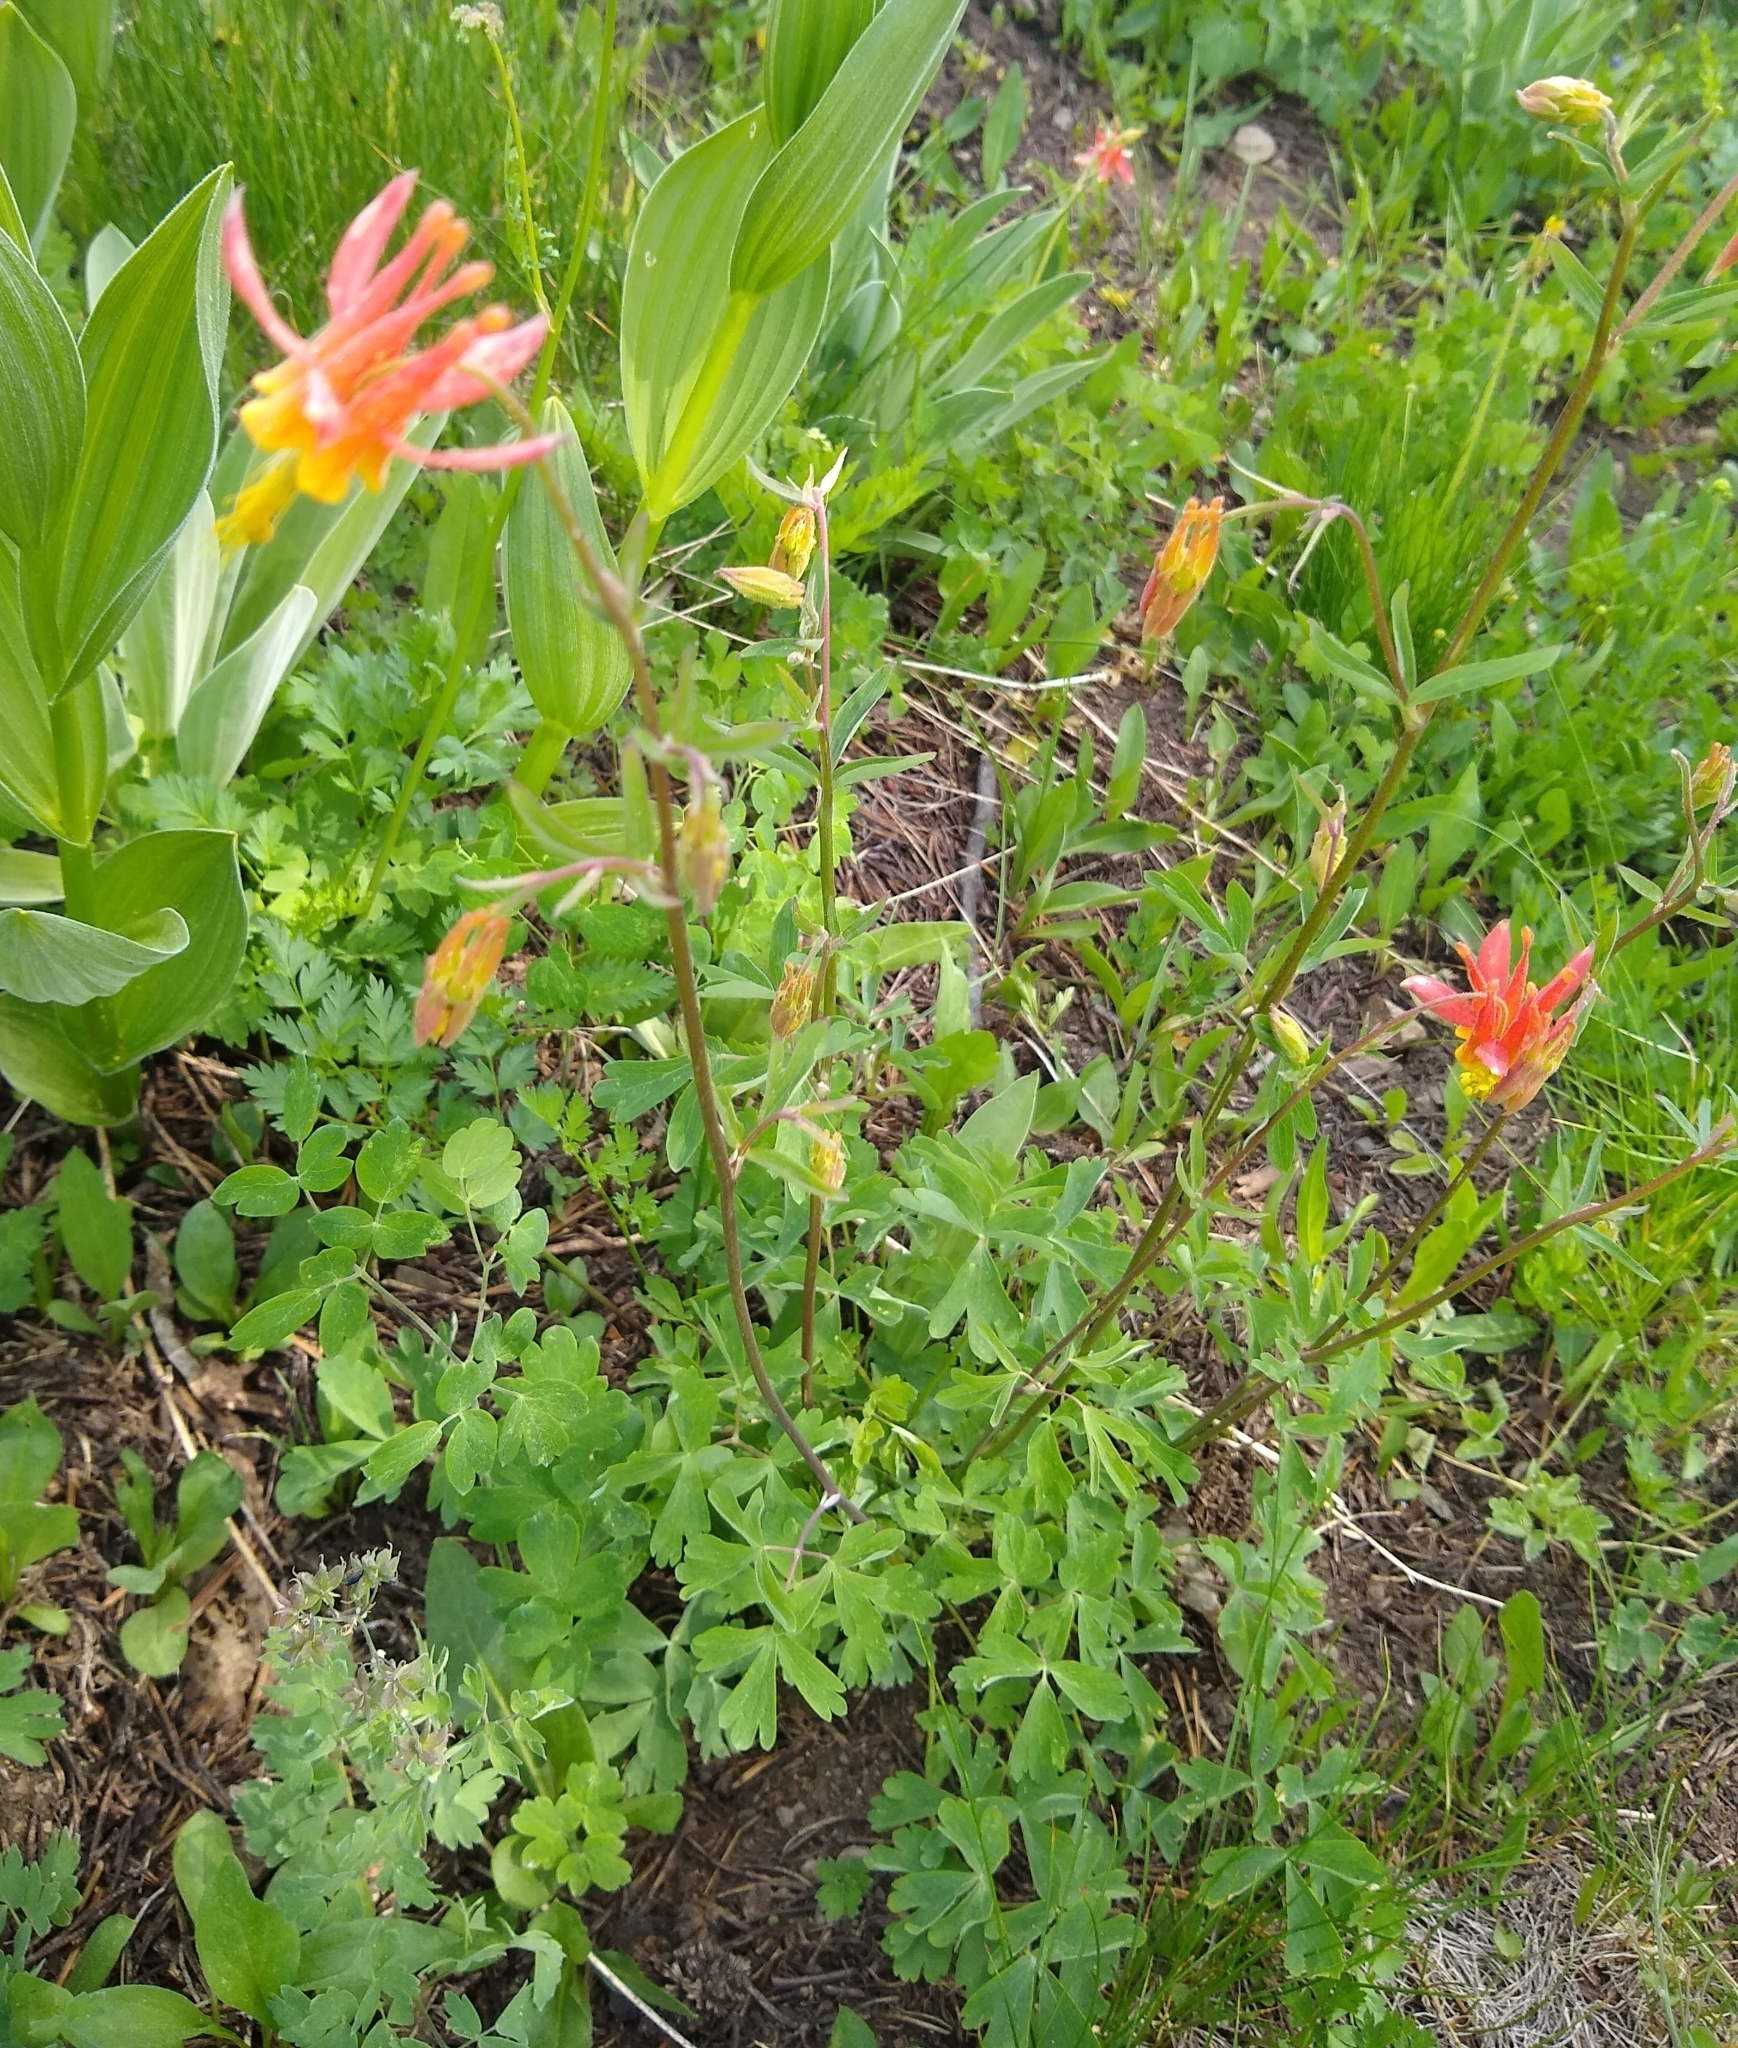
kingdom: Plantae
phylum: Tracheophyta
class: Magnoliopsida
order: Ranunculales
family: Ranunculaceae
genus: Aquilegia
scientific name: Aquilegia formosa
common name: Sitka columbine
